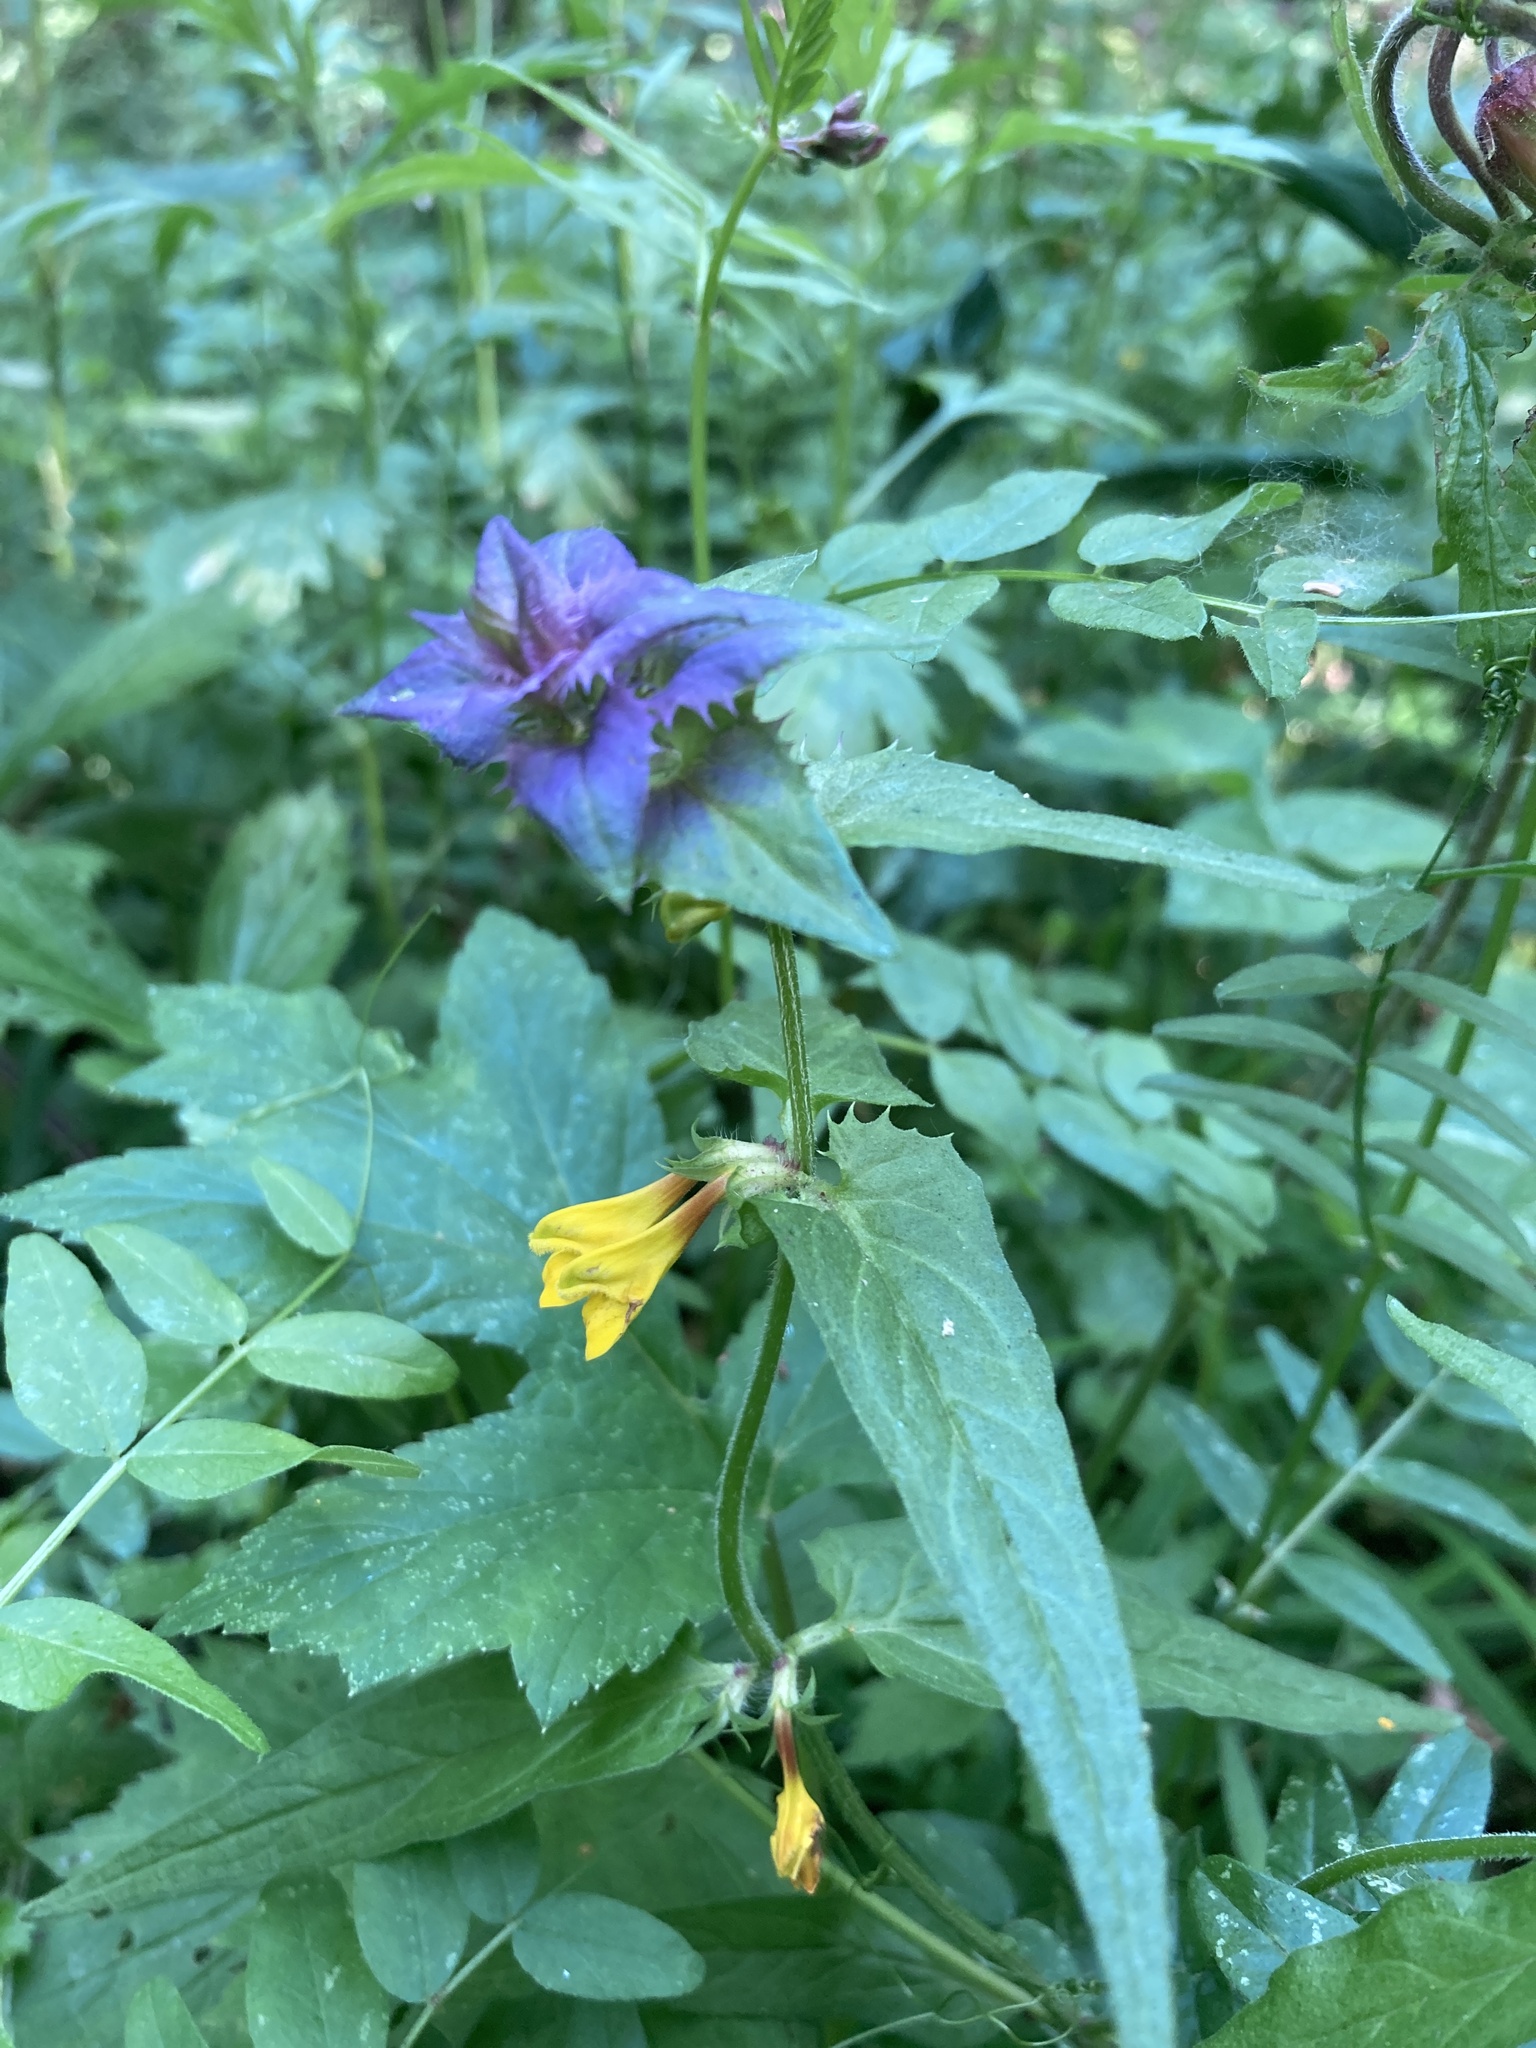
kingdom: Plantae
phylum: Tracheophyta
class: Magnoliopsida
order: Lamiales
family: Orobanchaceae
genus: Melampyrum
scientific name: Melampyrum nemorosum
